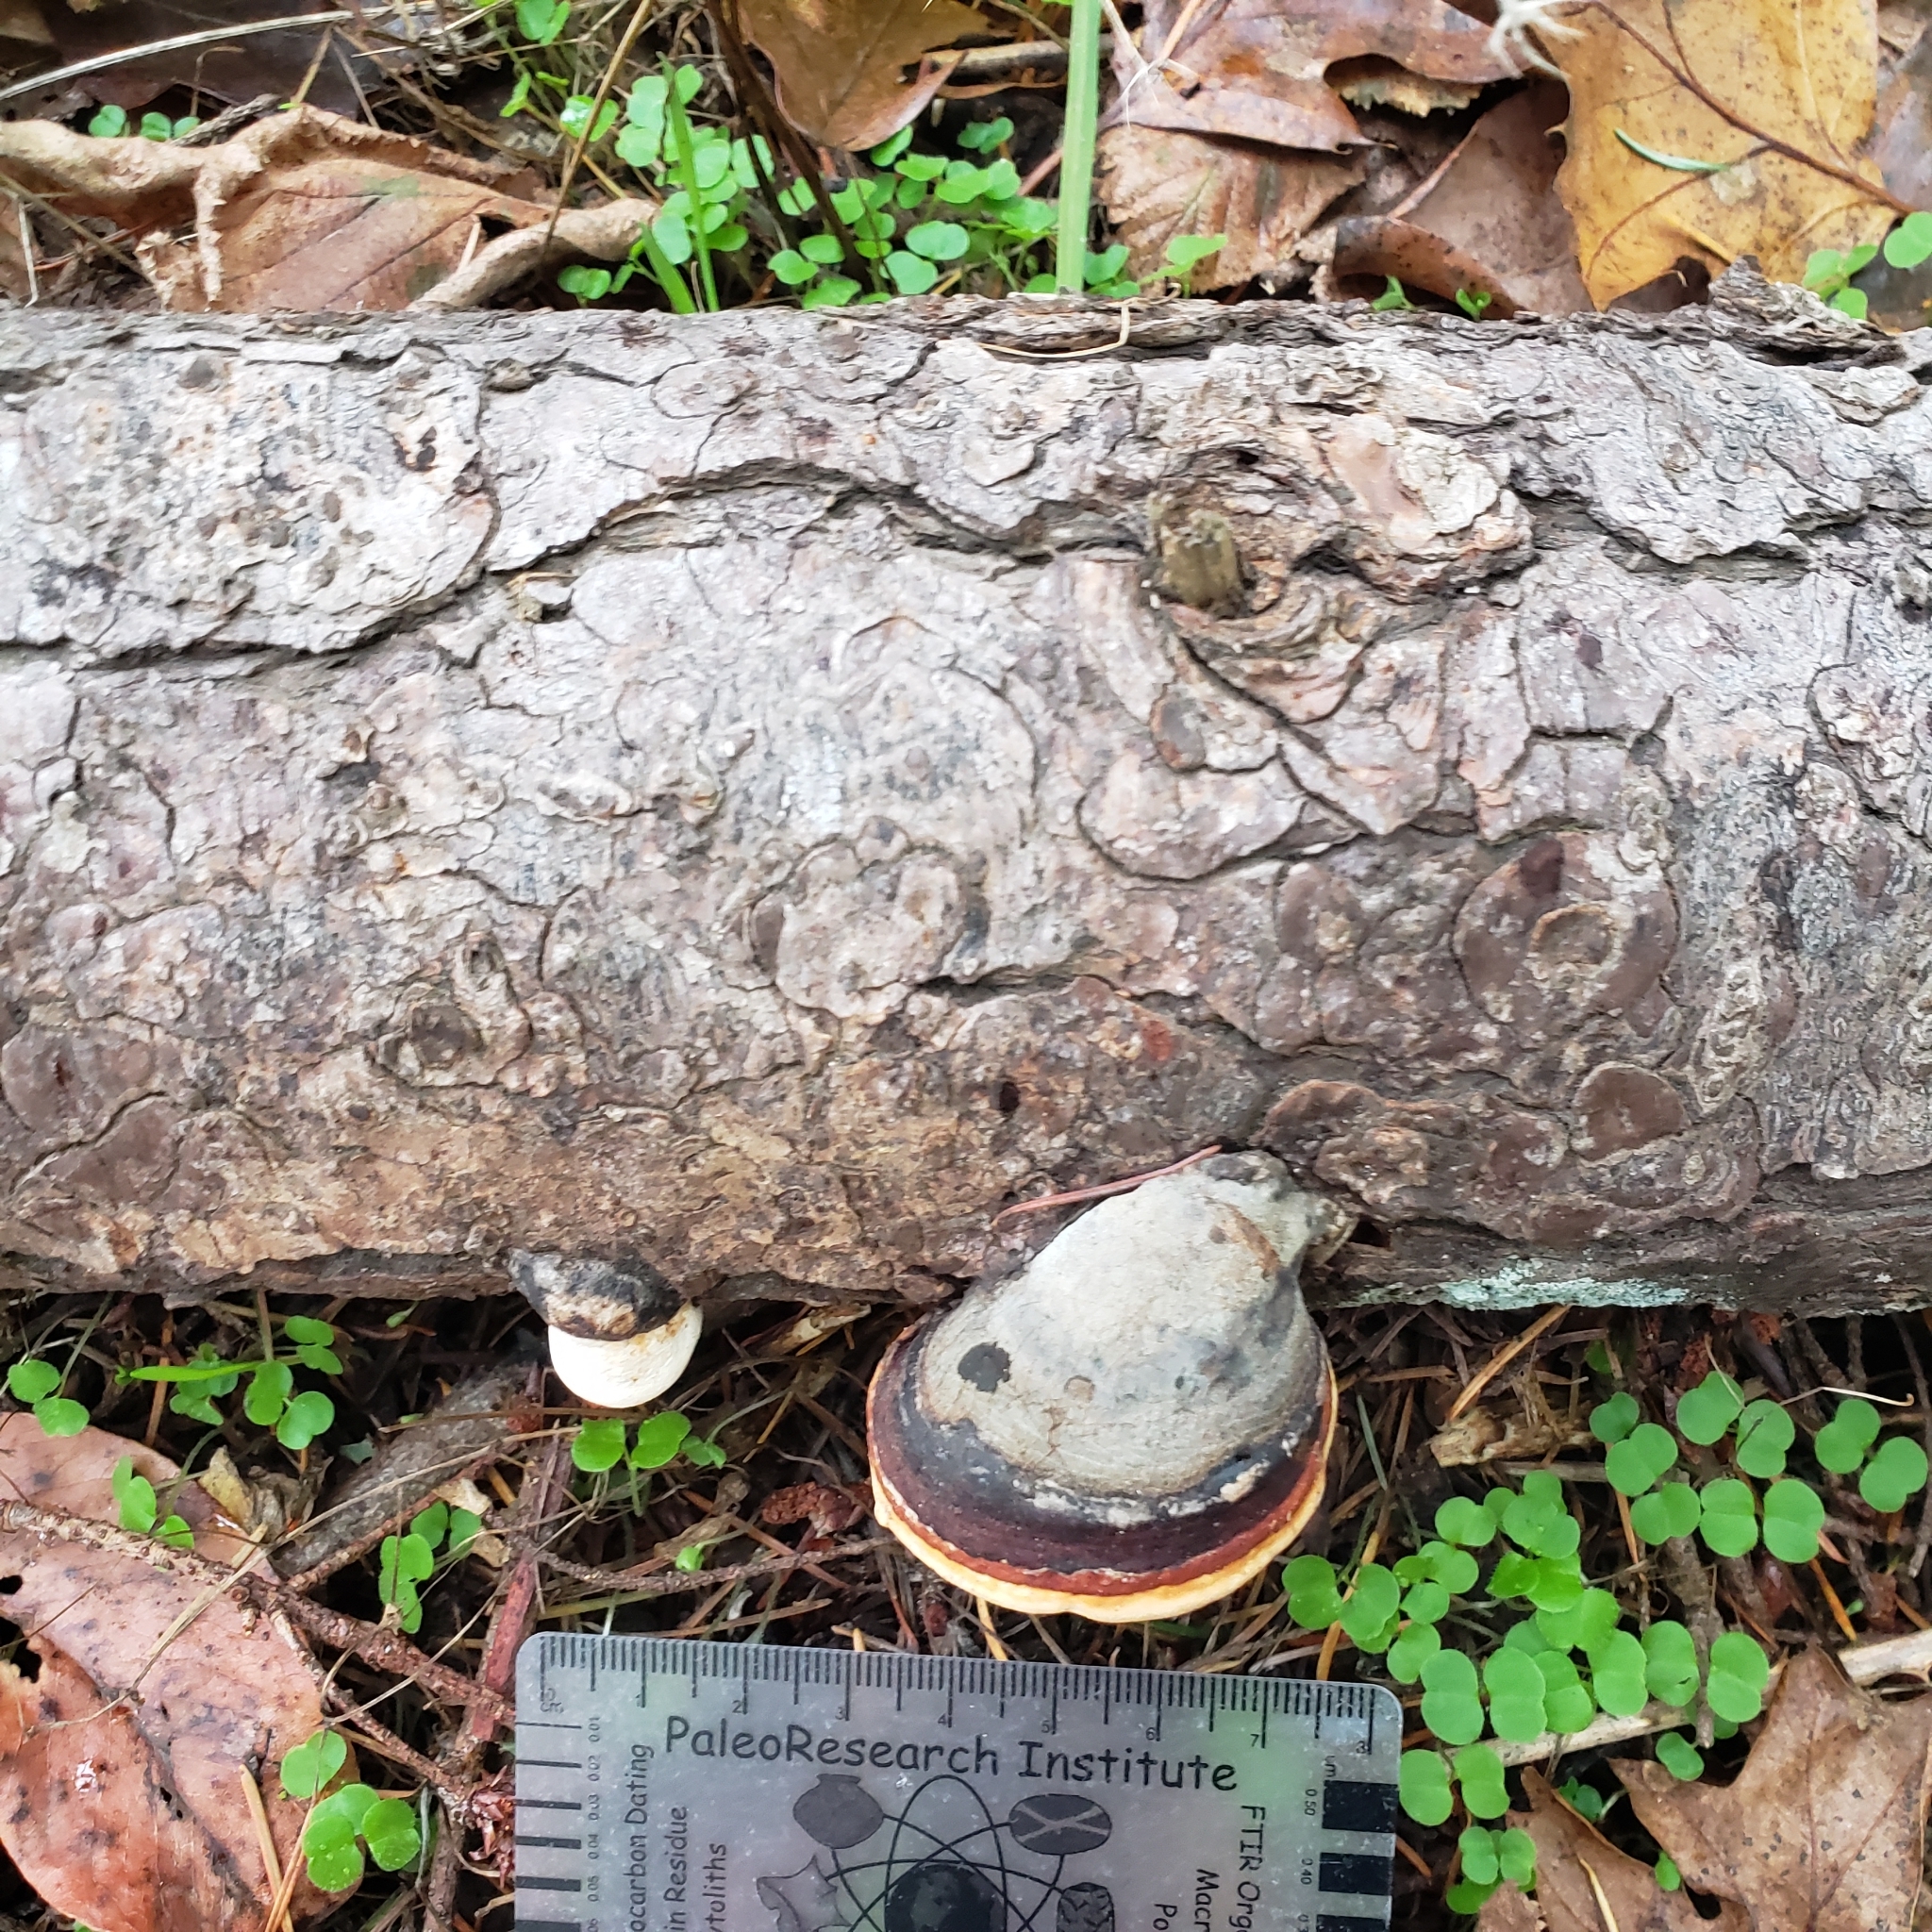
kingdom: Fungi
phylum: Basidiomycota
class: Agaricomycetes
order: Polyporales
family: Fomitopsidaceae
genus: Fomitopsis
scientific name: Fomitopsis mounceae
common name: Northern red belt
